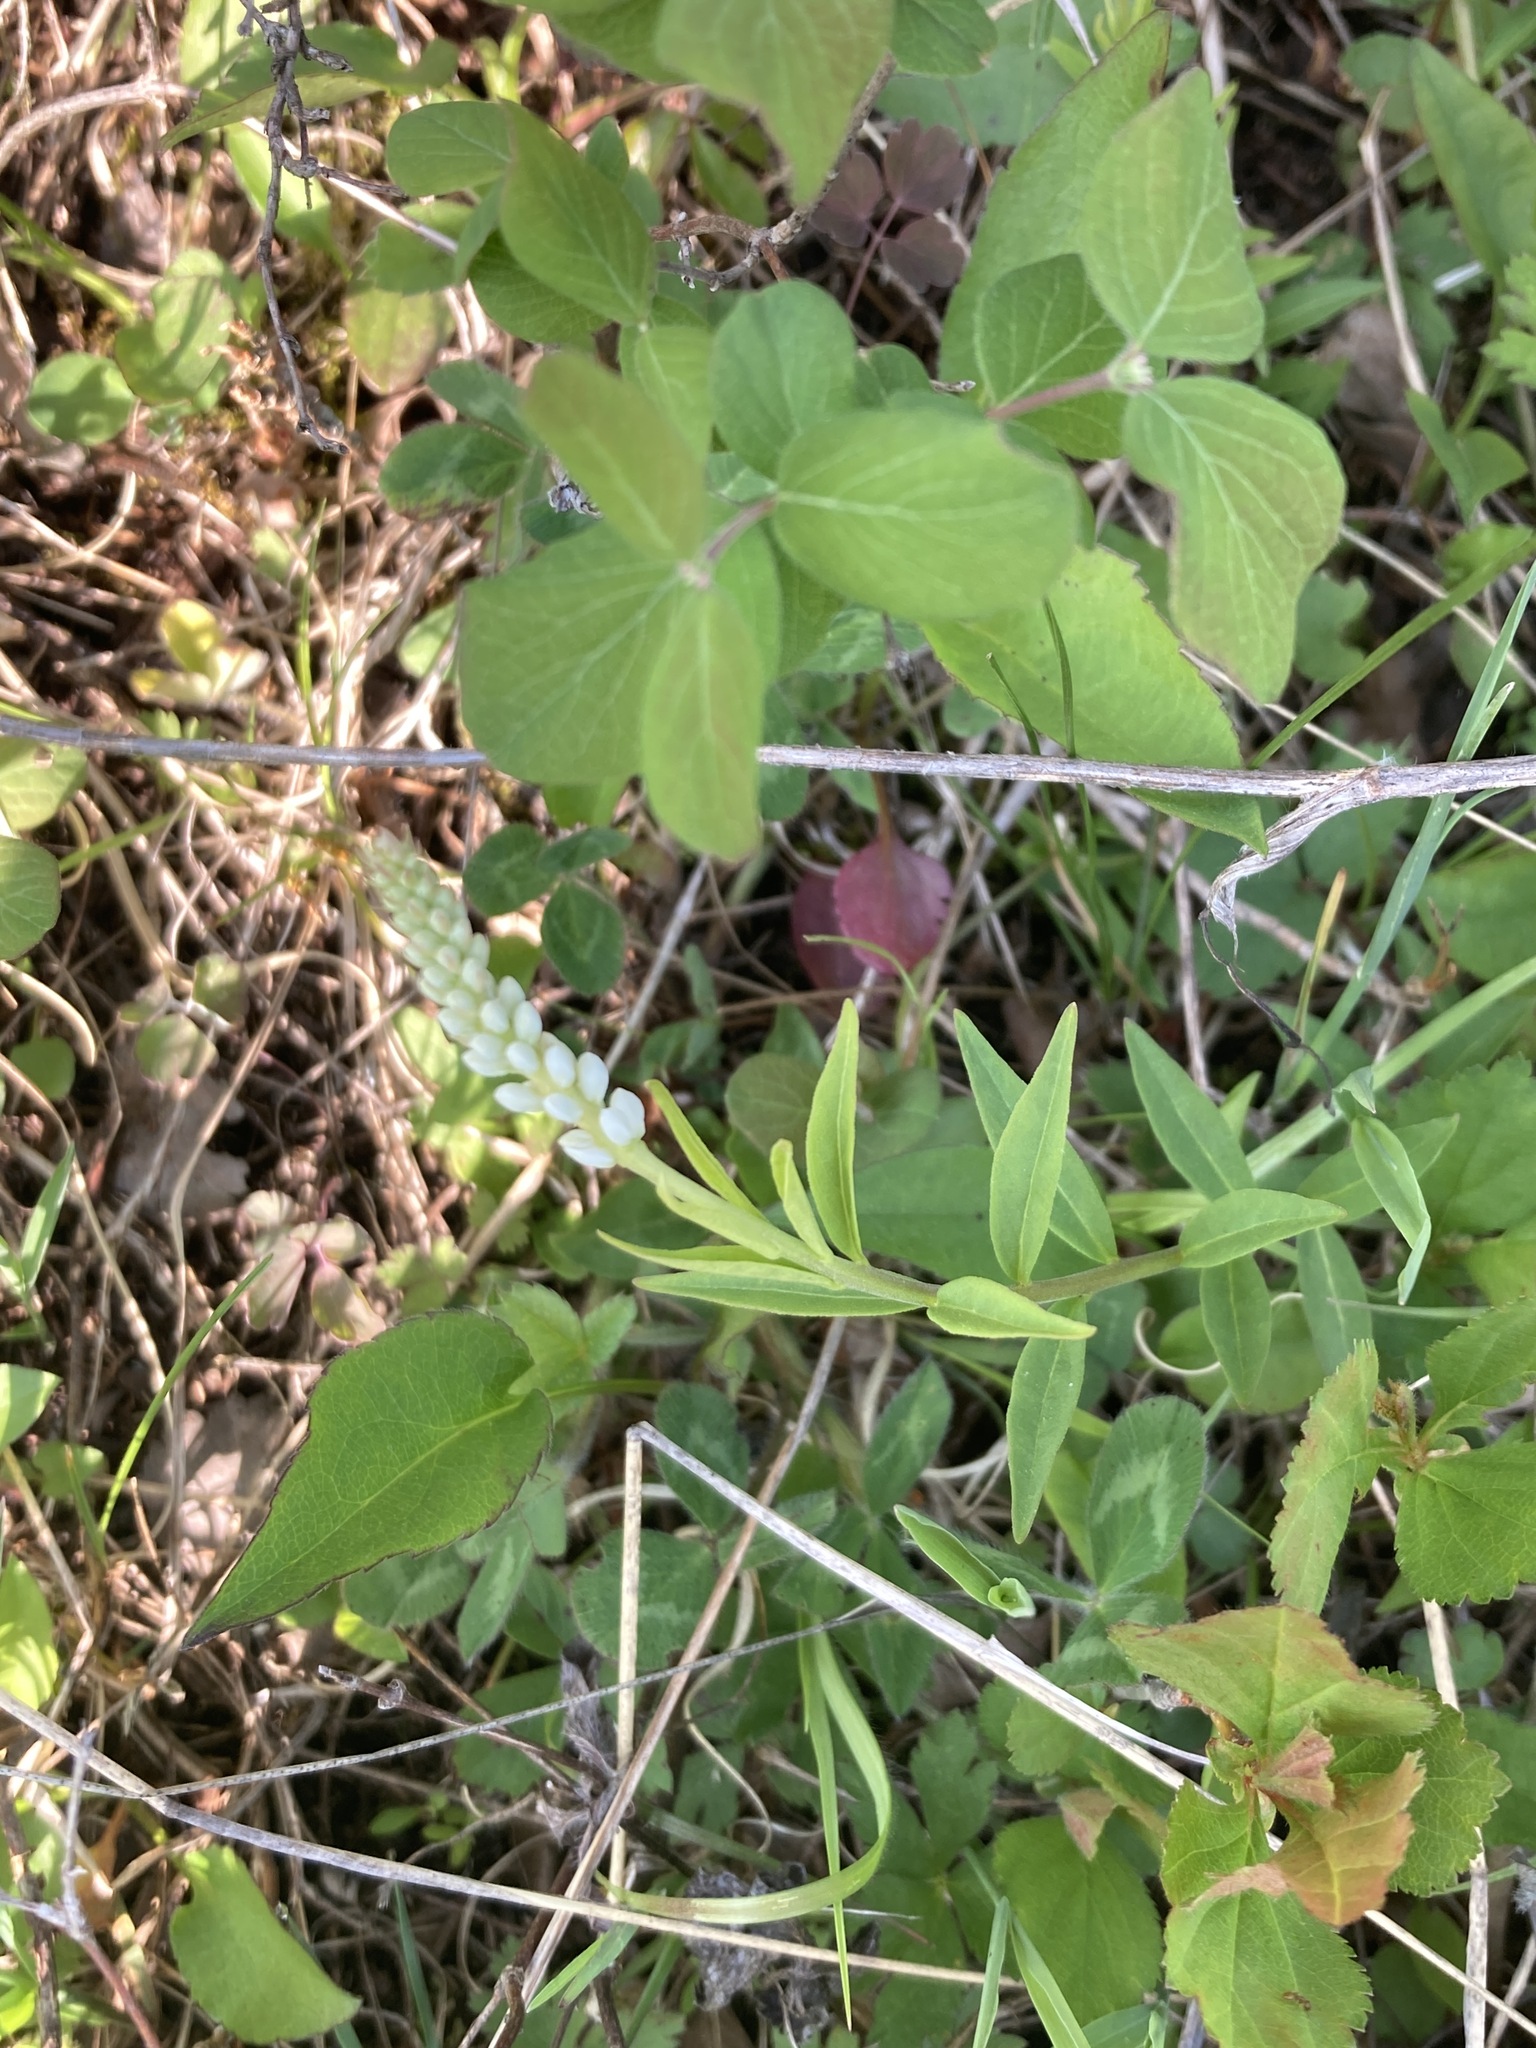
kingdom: Plantae
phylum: Tracheophyta
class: Magnoliopsida
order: Fabales
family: Polygalaceae
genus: Polygala
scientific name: Polygala senega
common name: Seneca snakeroot
